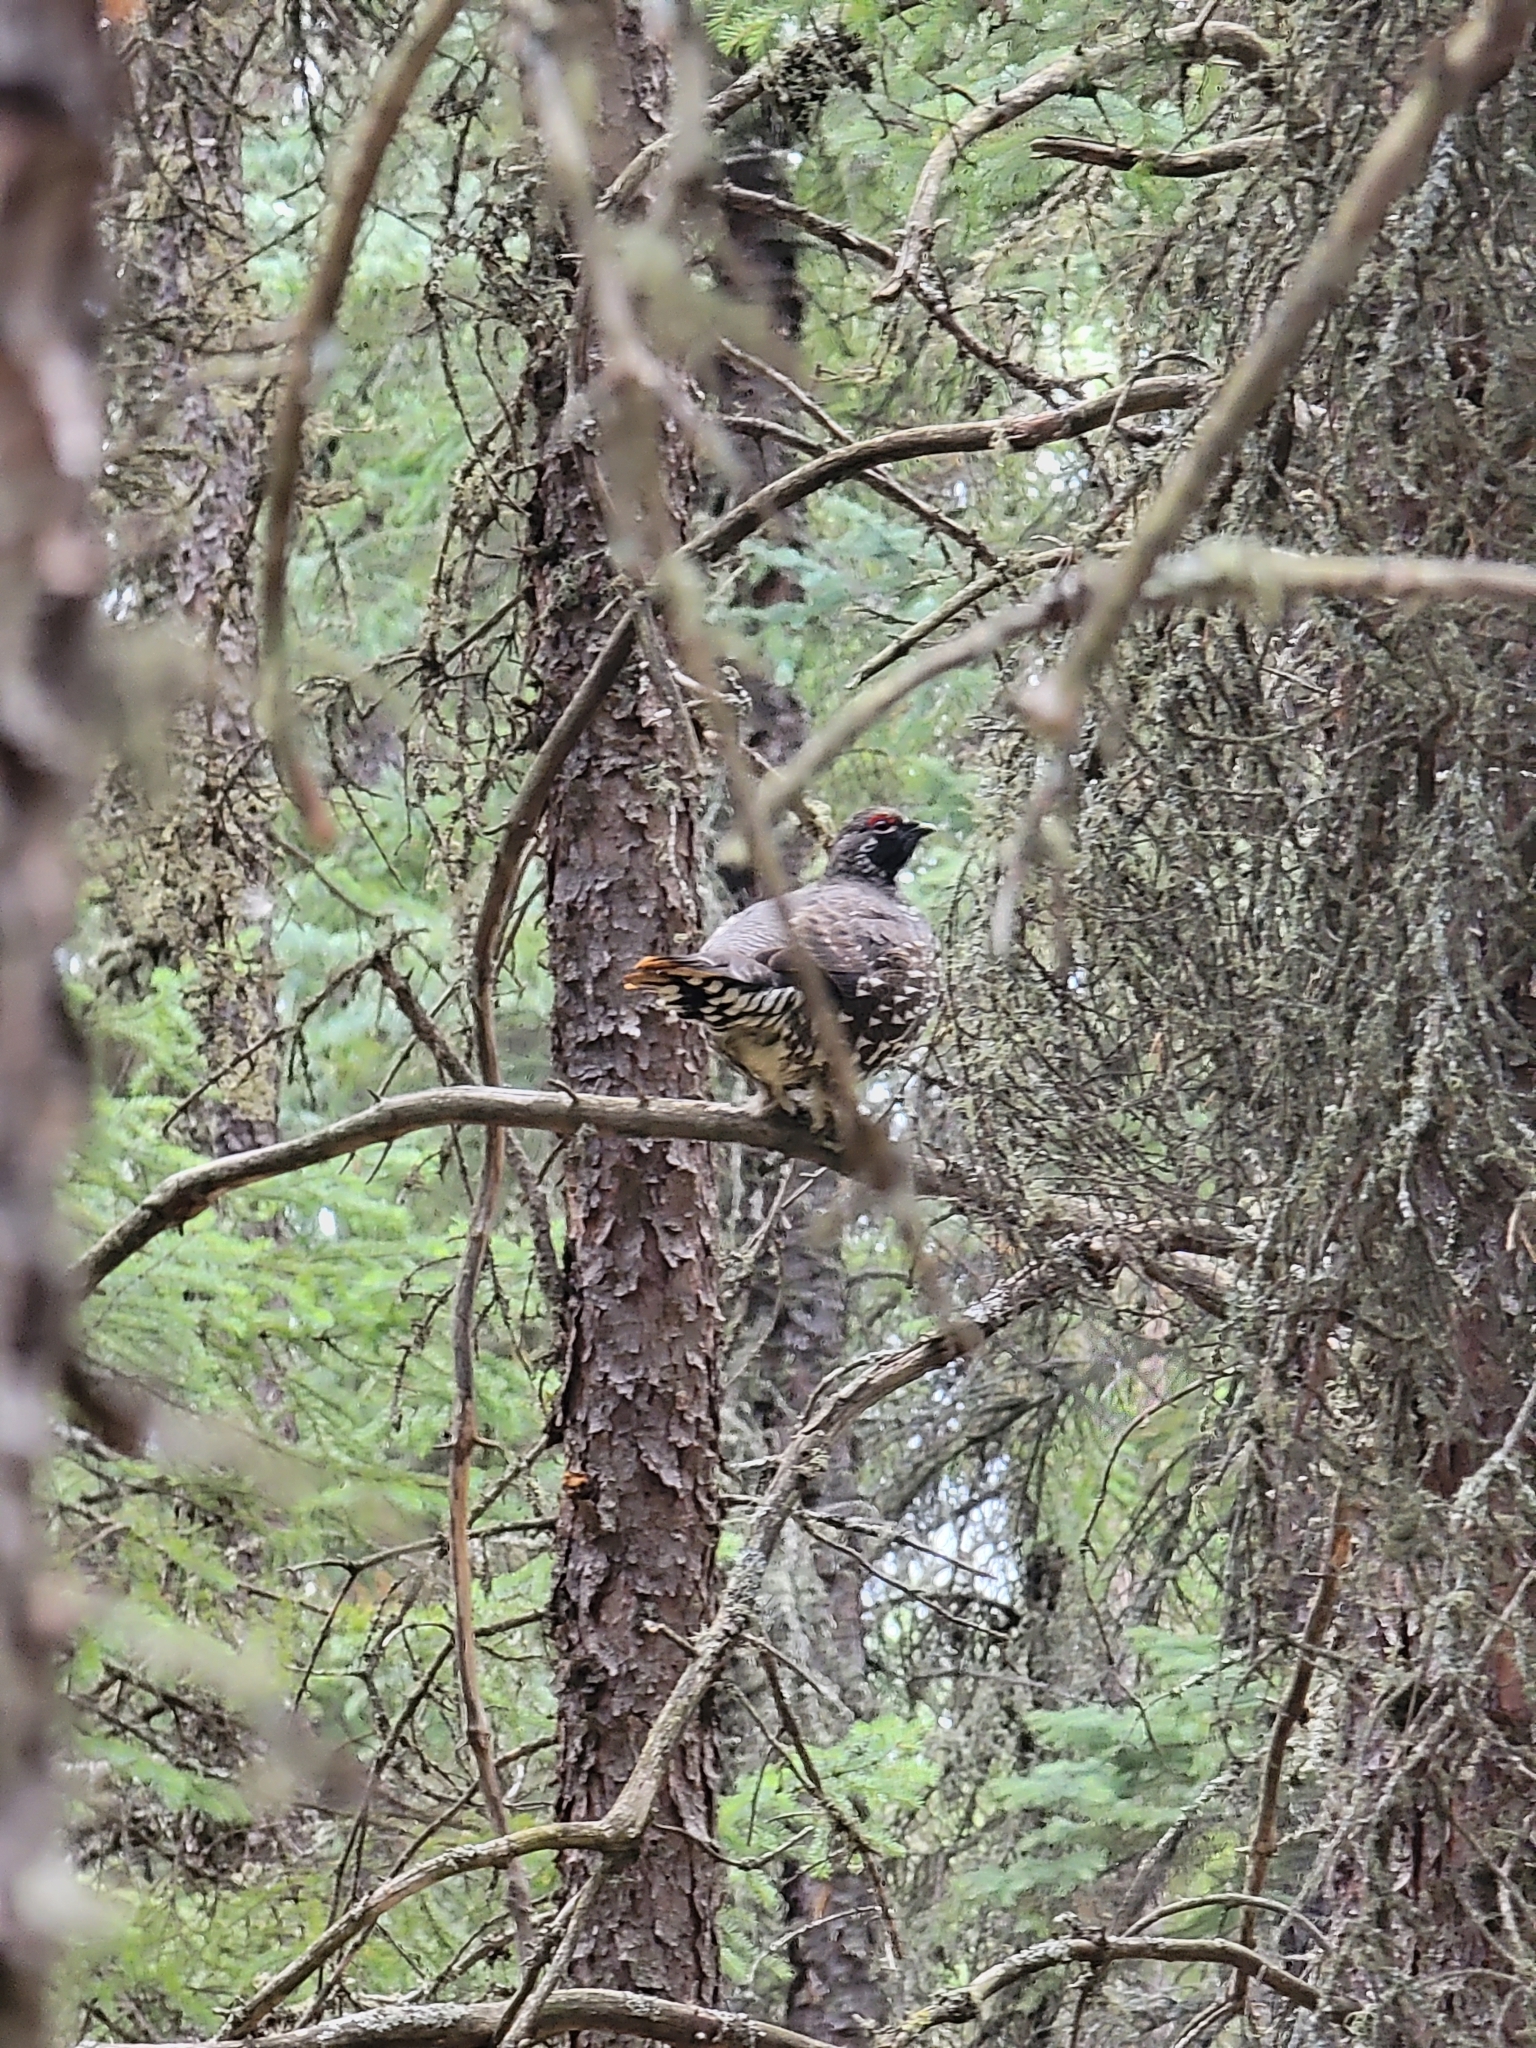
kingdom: Animalia
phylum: Chordata
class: Aves
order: Galliformes
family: Phasianidae
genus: Canachites
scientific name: Canachites canadensis
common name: Spruce grouse
